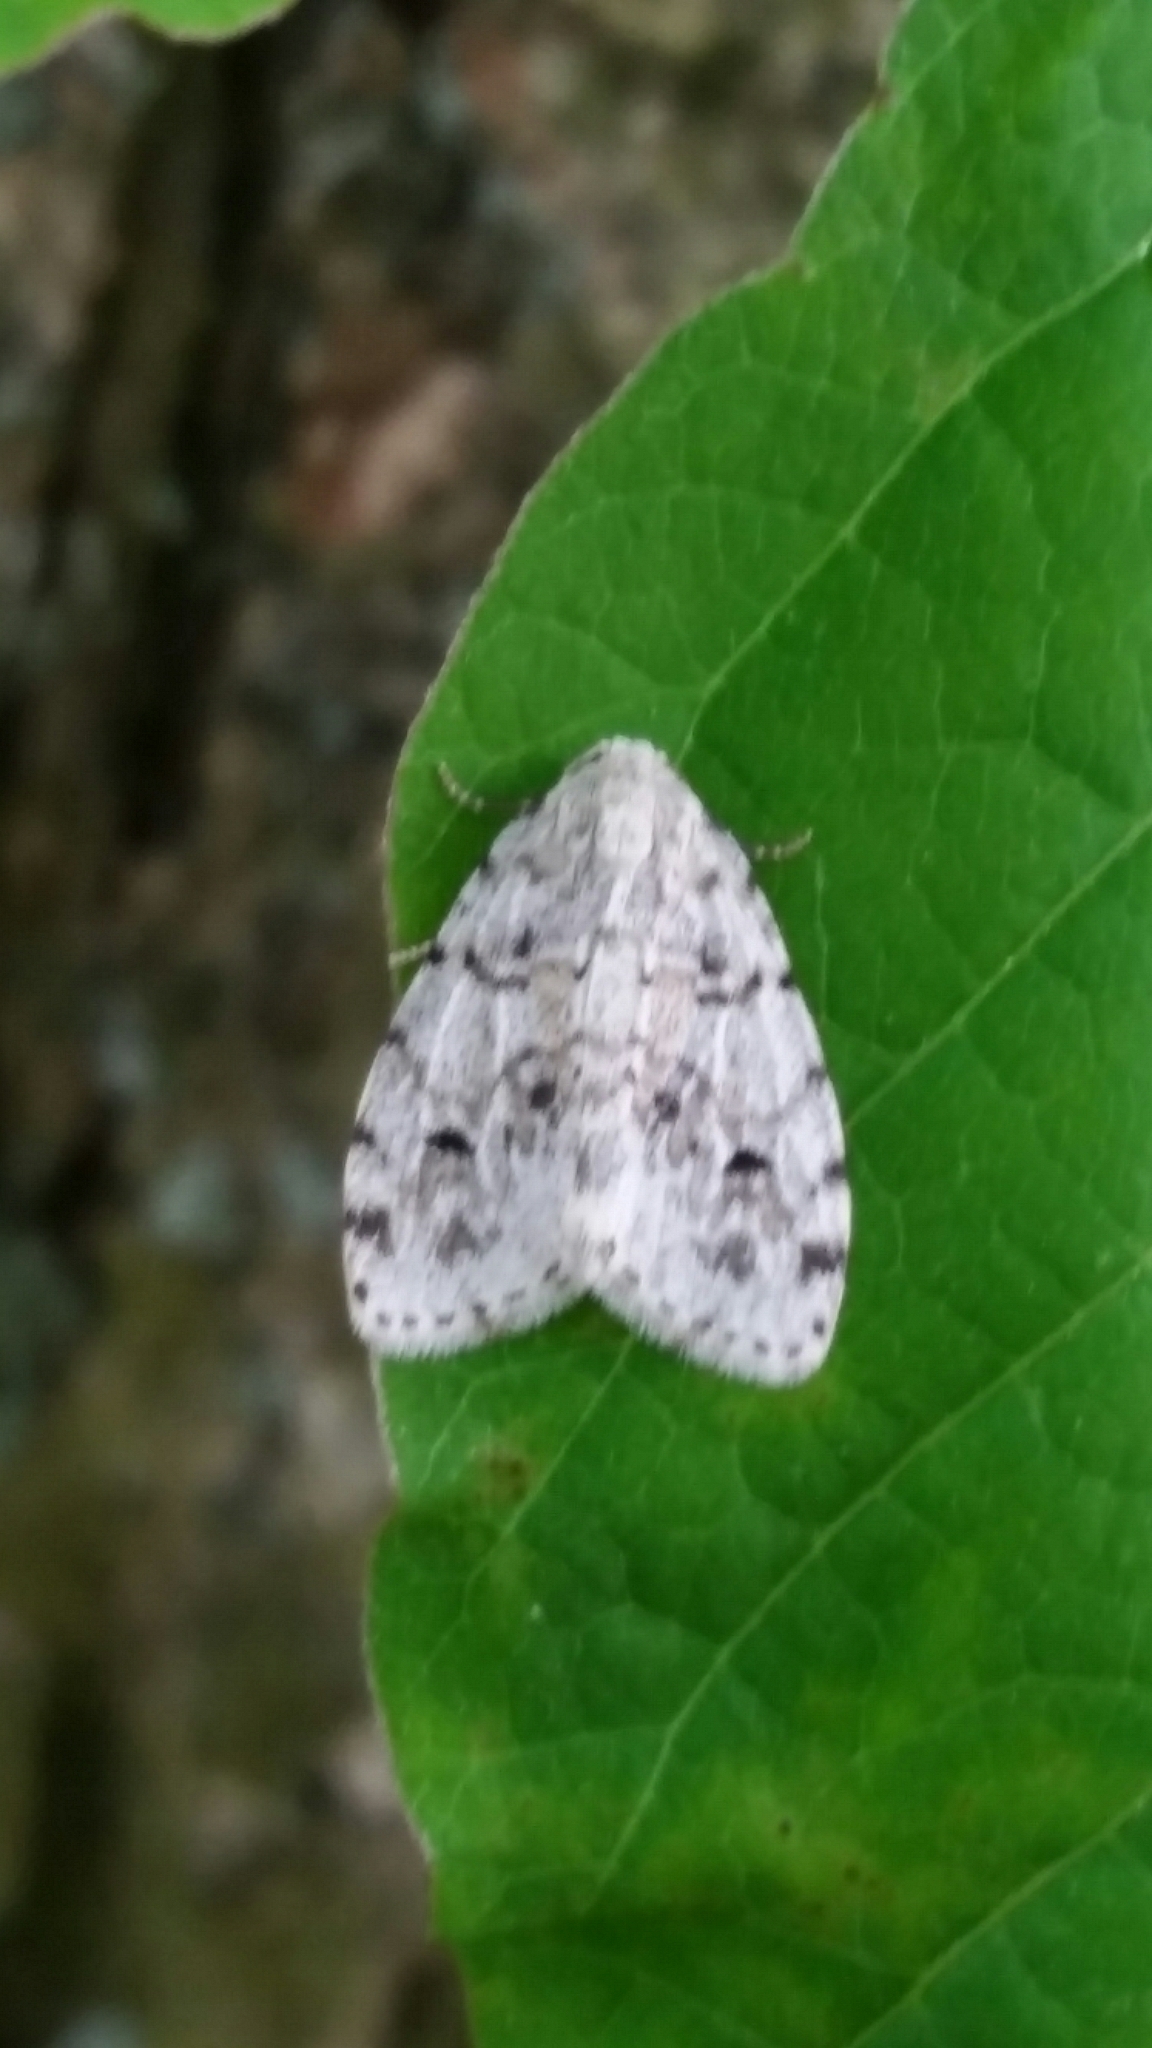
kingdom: Animalia
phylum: Arthropoda
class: Insecta
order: Lepidoptera
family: Erebidae
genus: Clemensia
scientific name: Clemensia albata
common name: Little white lichen moth
